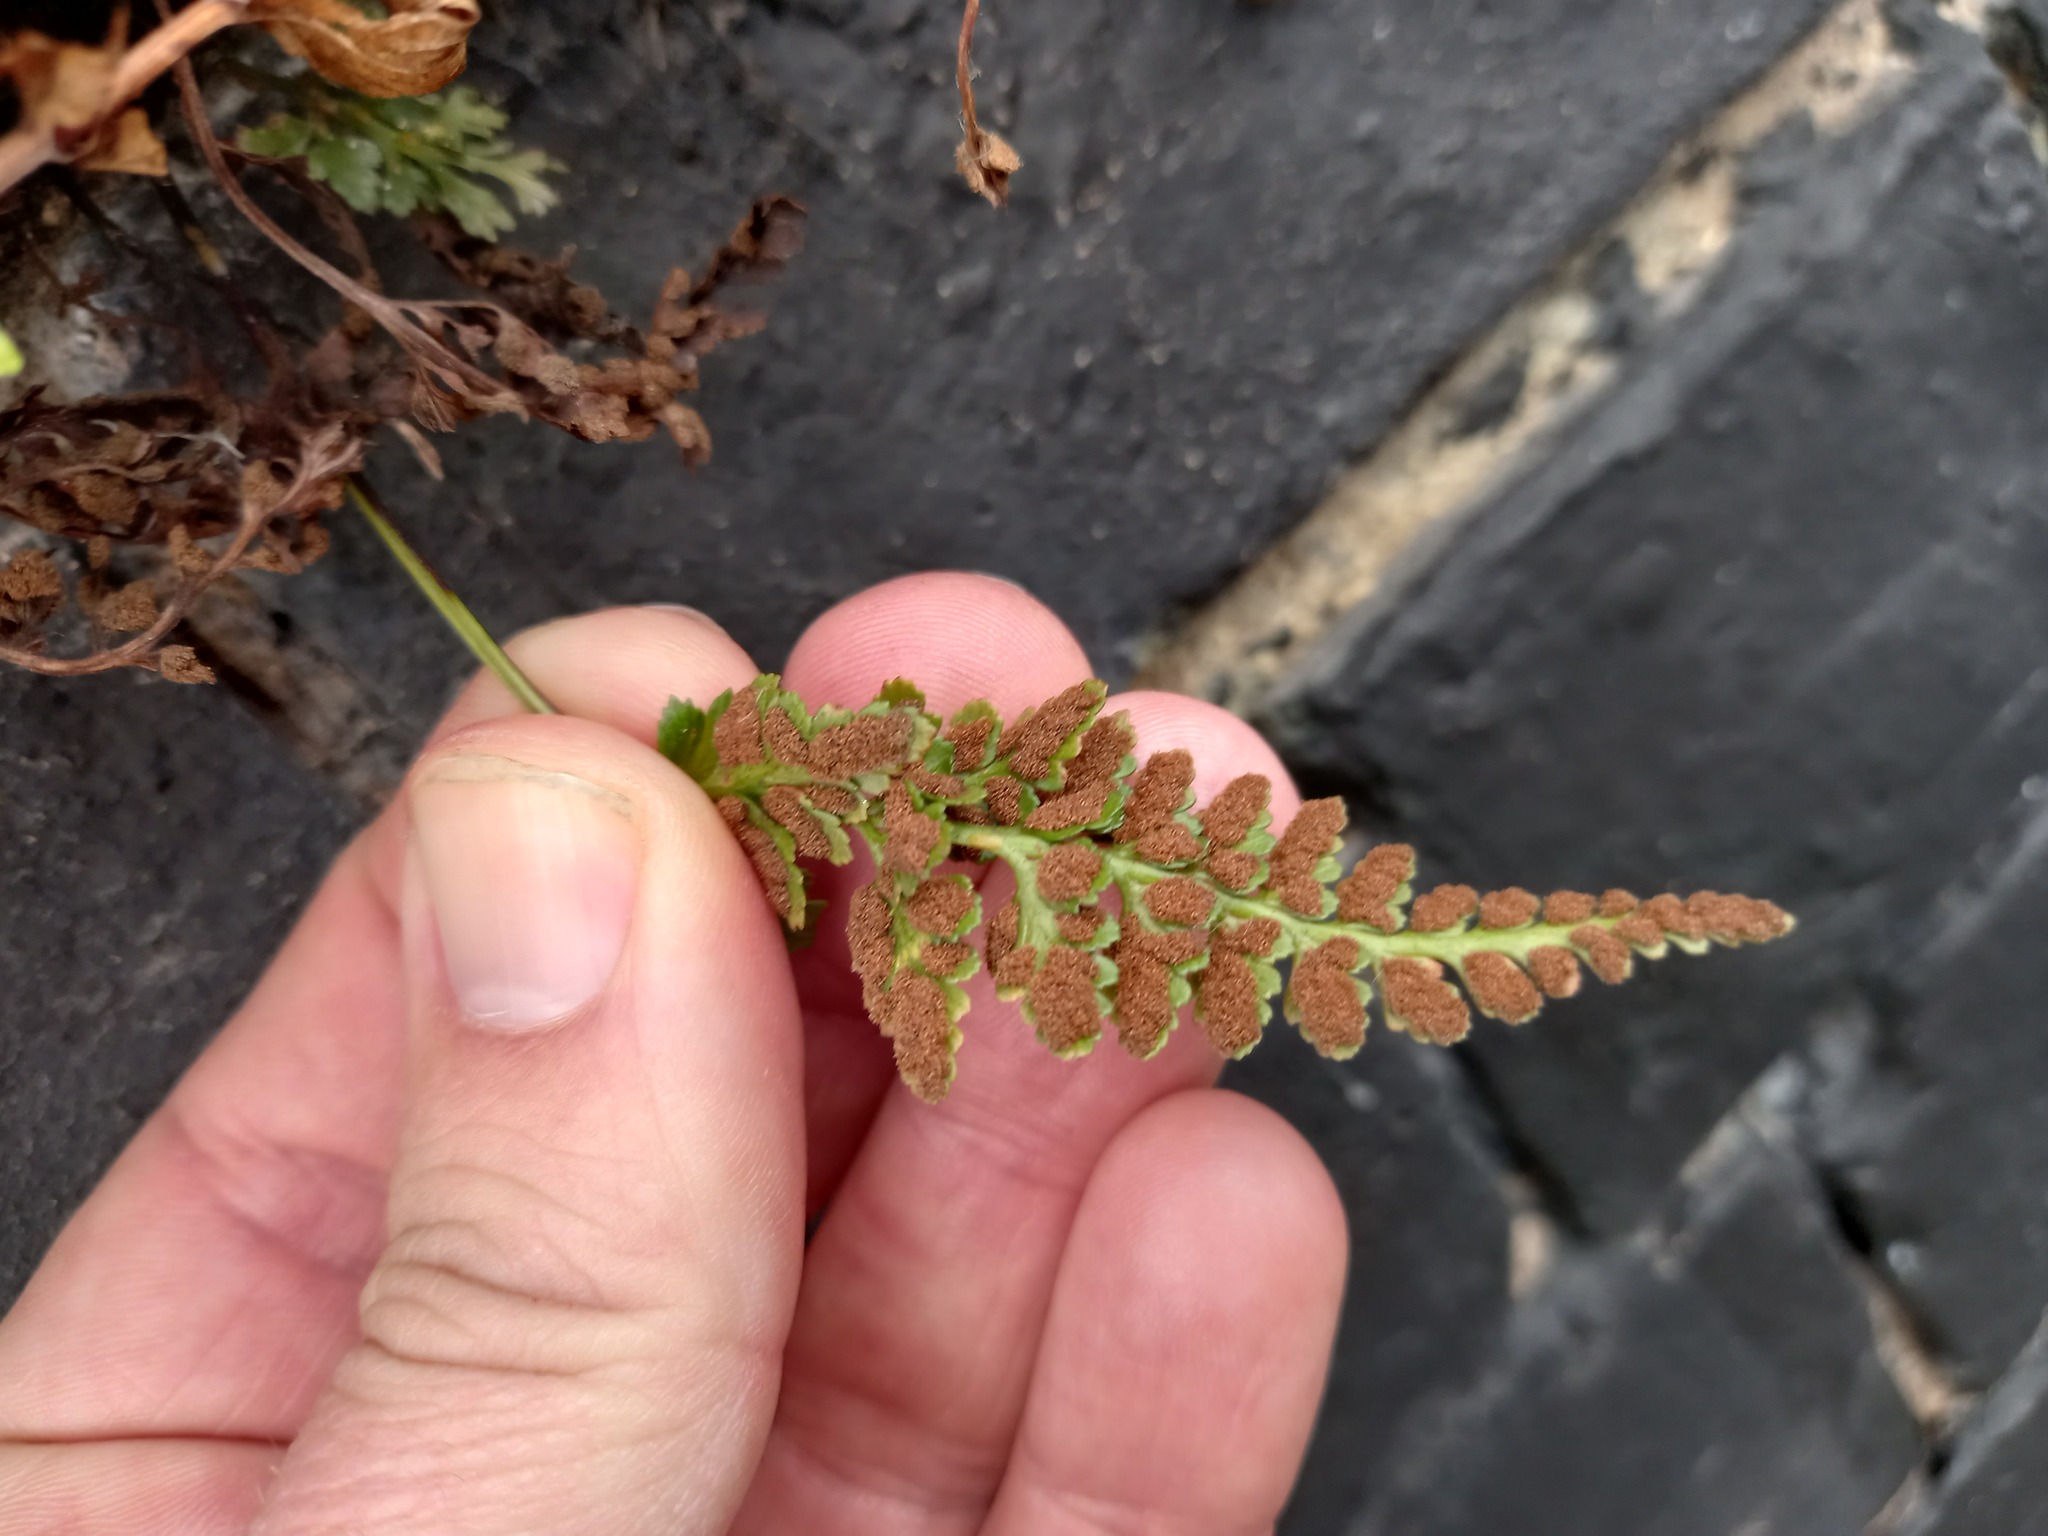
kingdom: Plantae
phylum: Tracheophyta
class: Polypodiopsida
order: Polypodiales
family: Aspleniaceae
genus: Asplenium
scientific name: Asplenium adiantum-nigrum
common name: Black spleenwort
